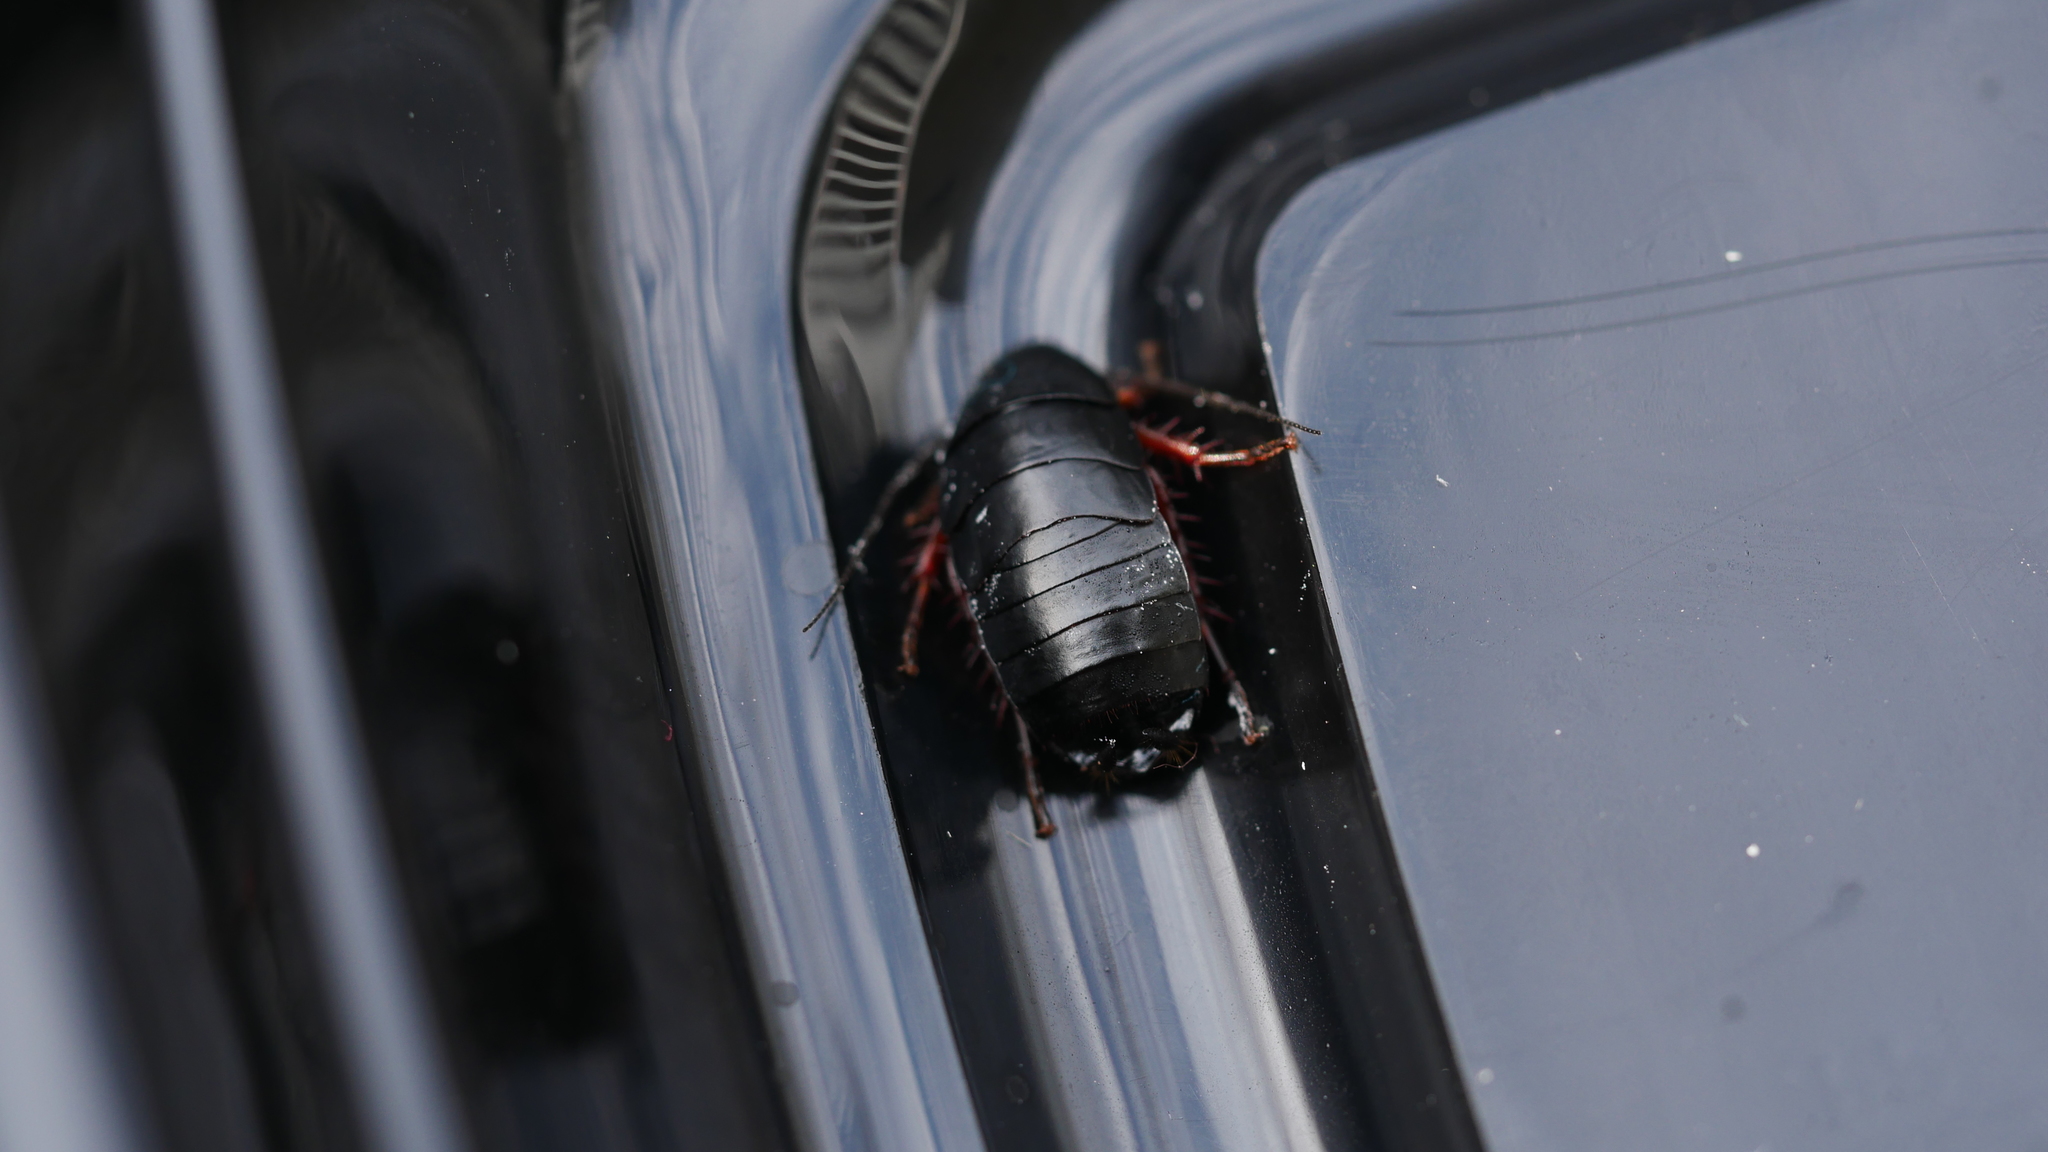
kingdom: Animalia
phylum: Arthropoda
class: Insecta
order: Blattodea
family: Ectobiidae
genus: Ischnoptera
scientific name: Ischnoptera deropeltiformis
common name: Dark wood cockroach
